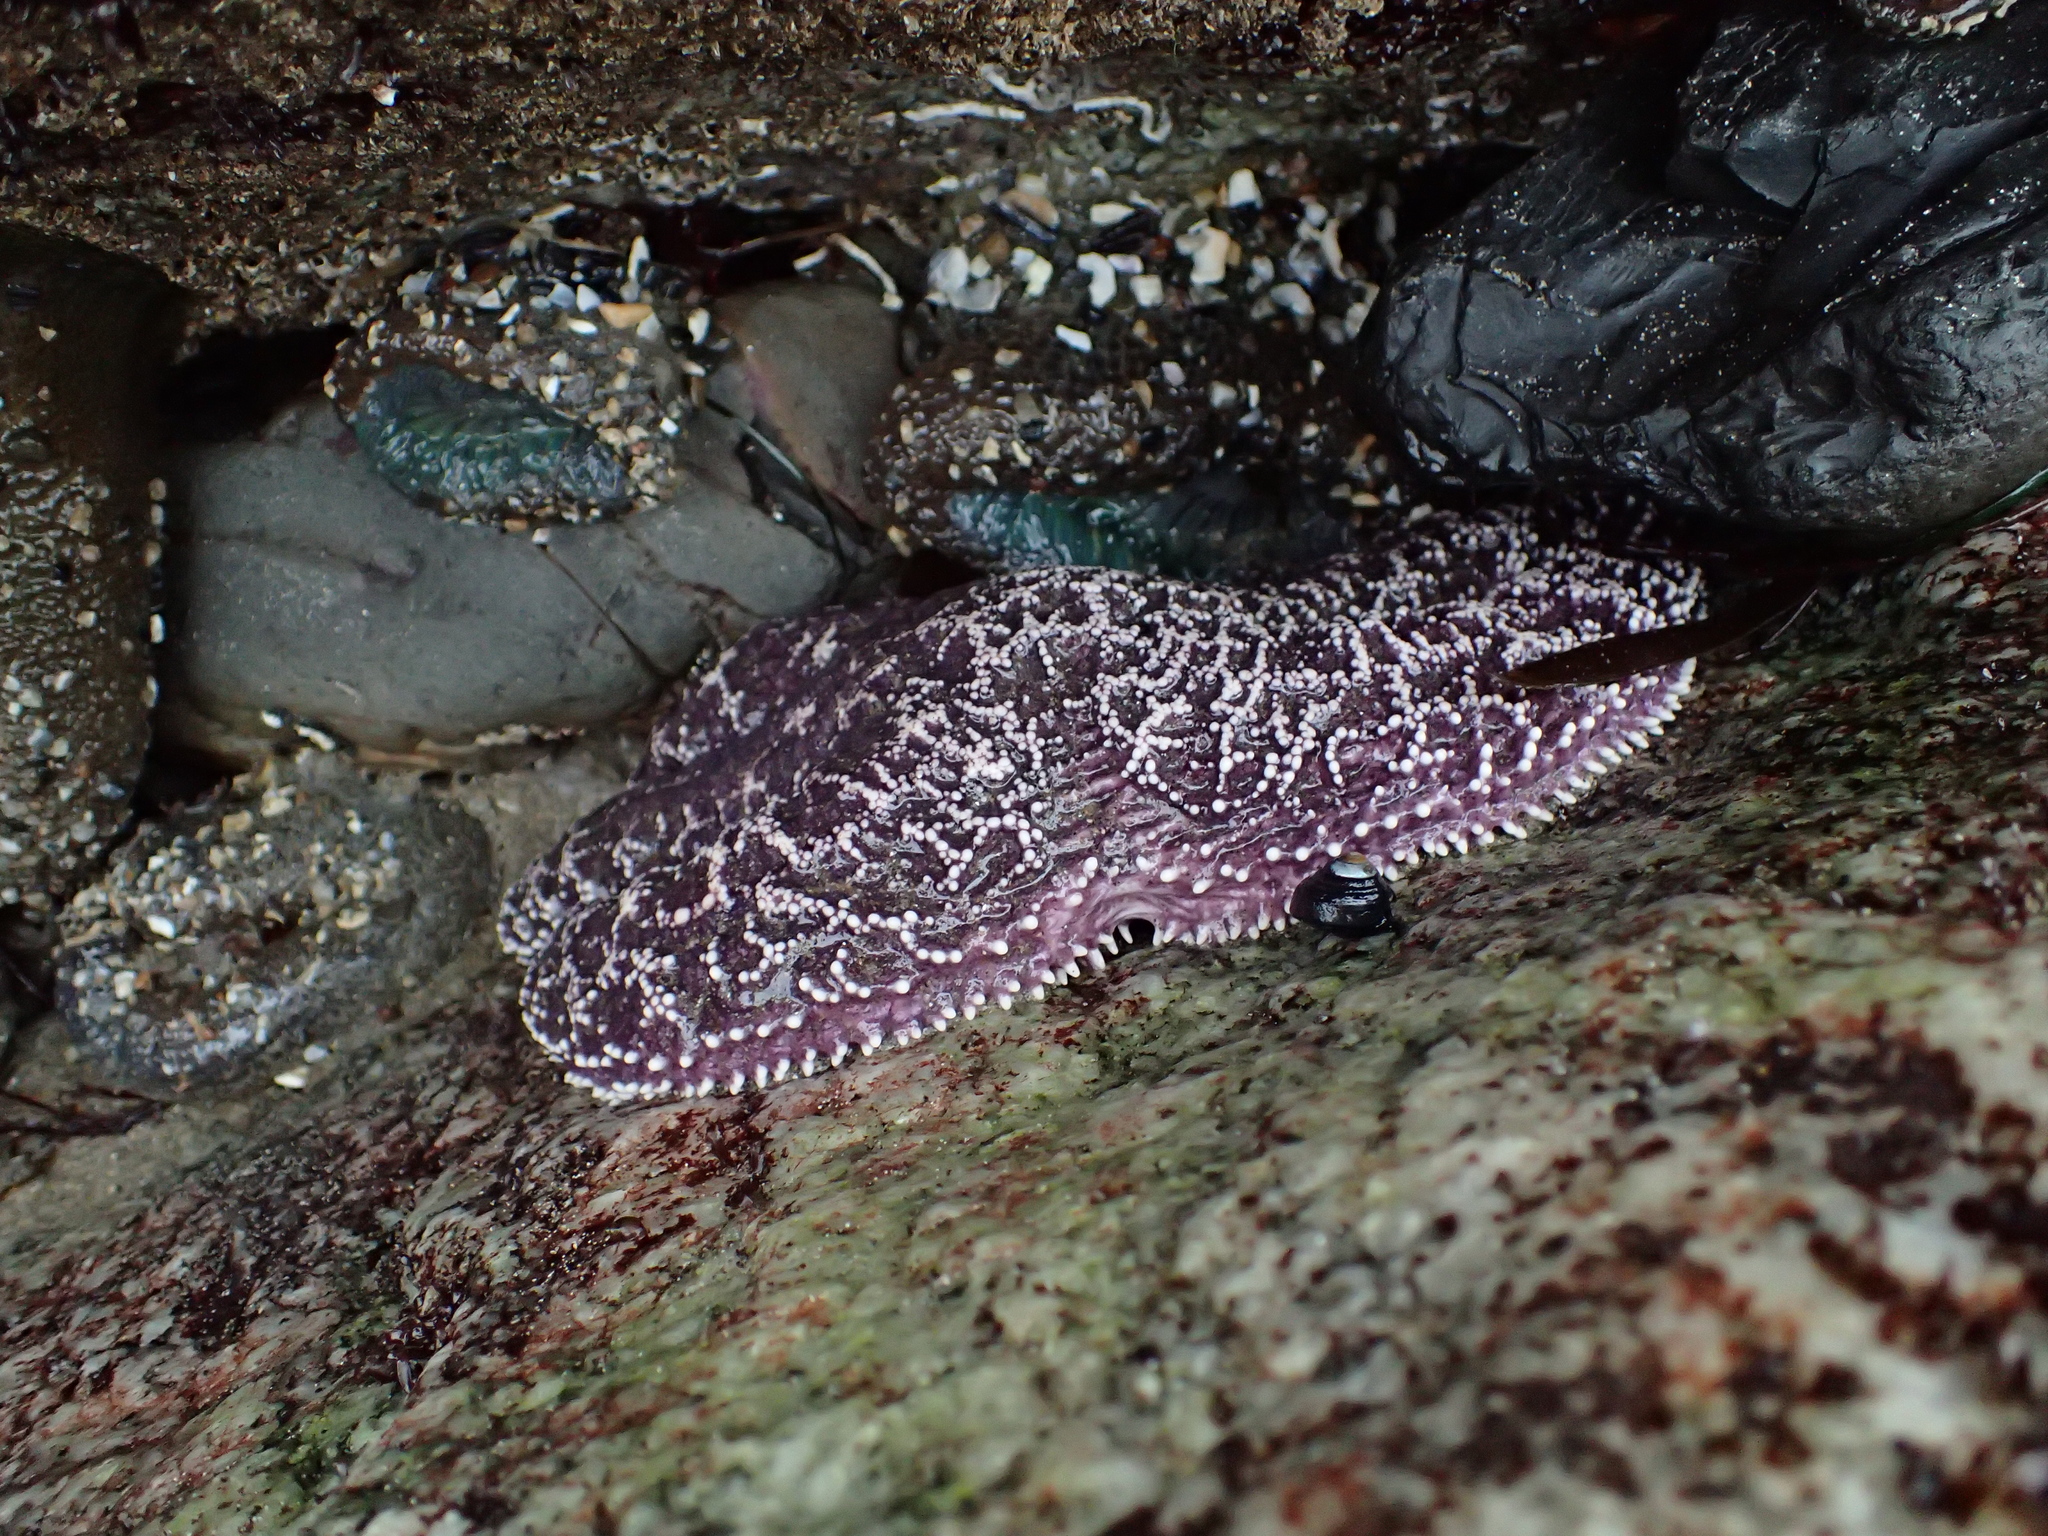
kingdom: Animalia
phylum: Echinodermata
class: Asteroidea
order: Forcipulatida
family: Asteriidae
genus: Pisaster
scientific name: Pisaster ochraceus
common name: Ochre stars
